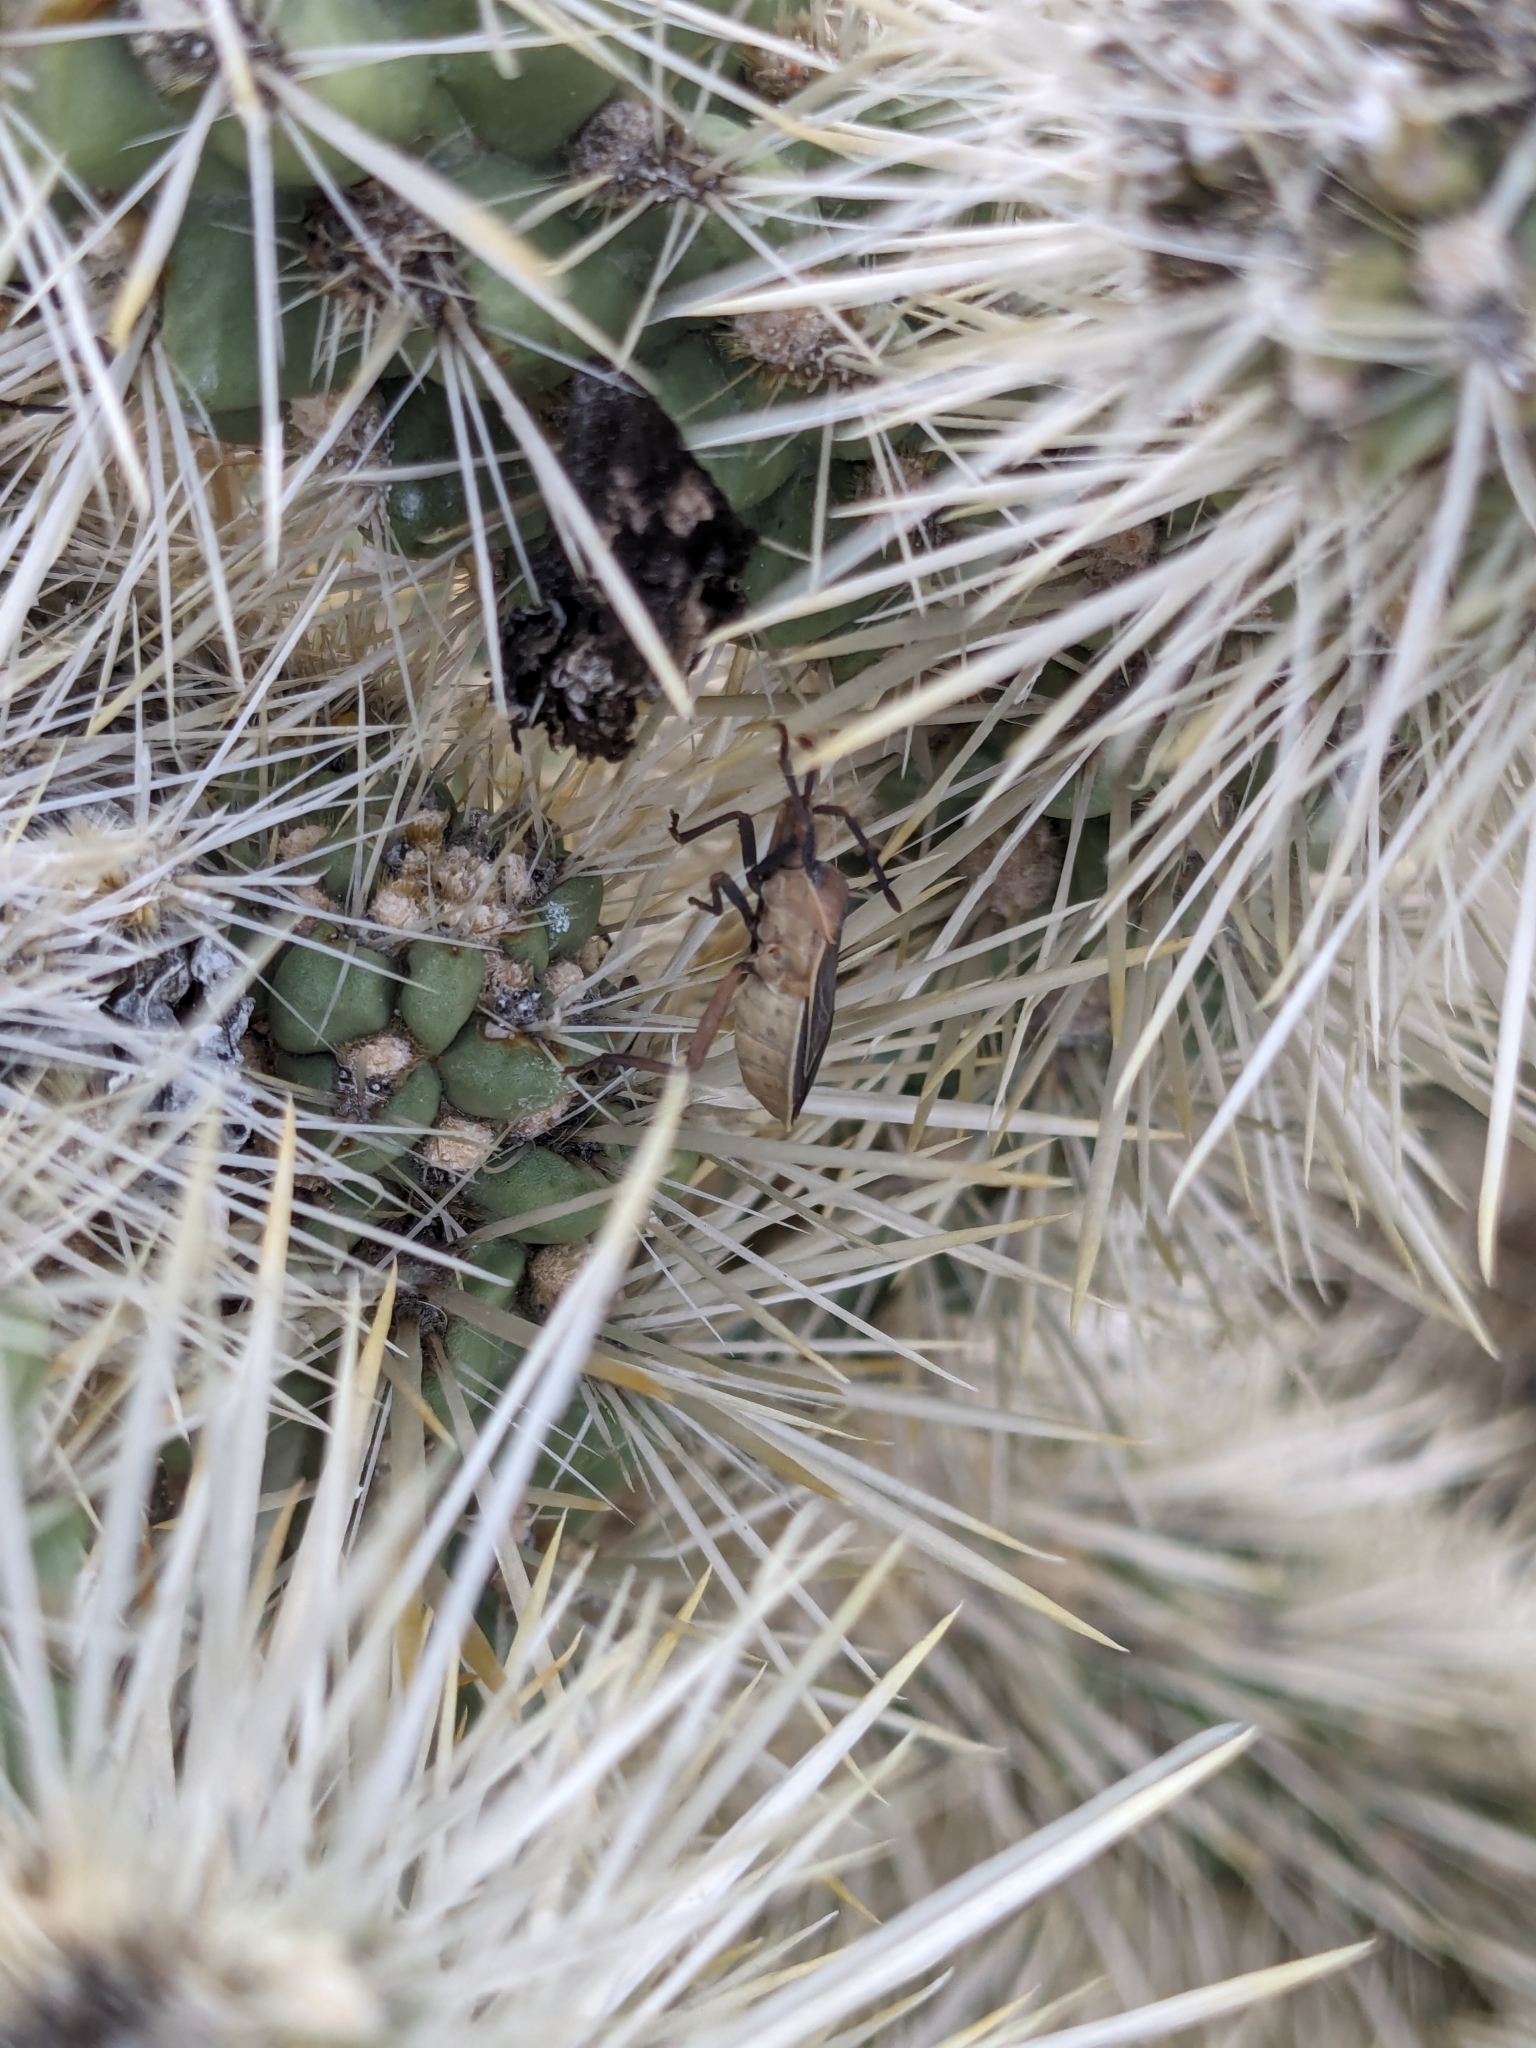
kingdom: Animalia
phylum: Arthropoda
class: Insecta
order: Hemiptera
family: Coreidae
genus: Chelinidea
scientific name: Chelinidea vittiger
